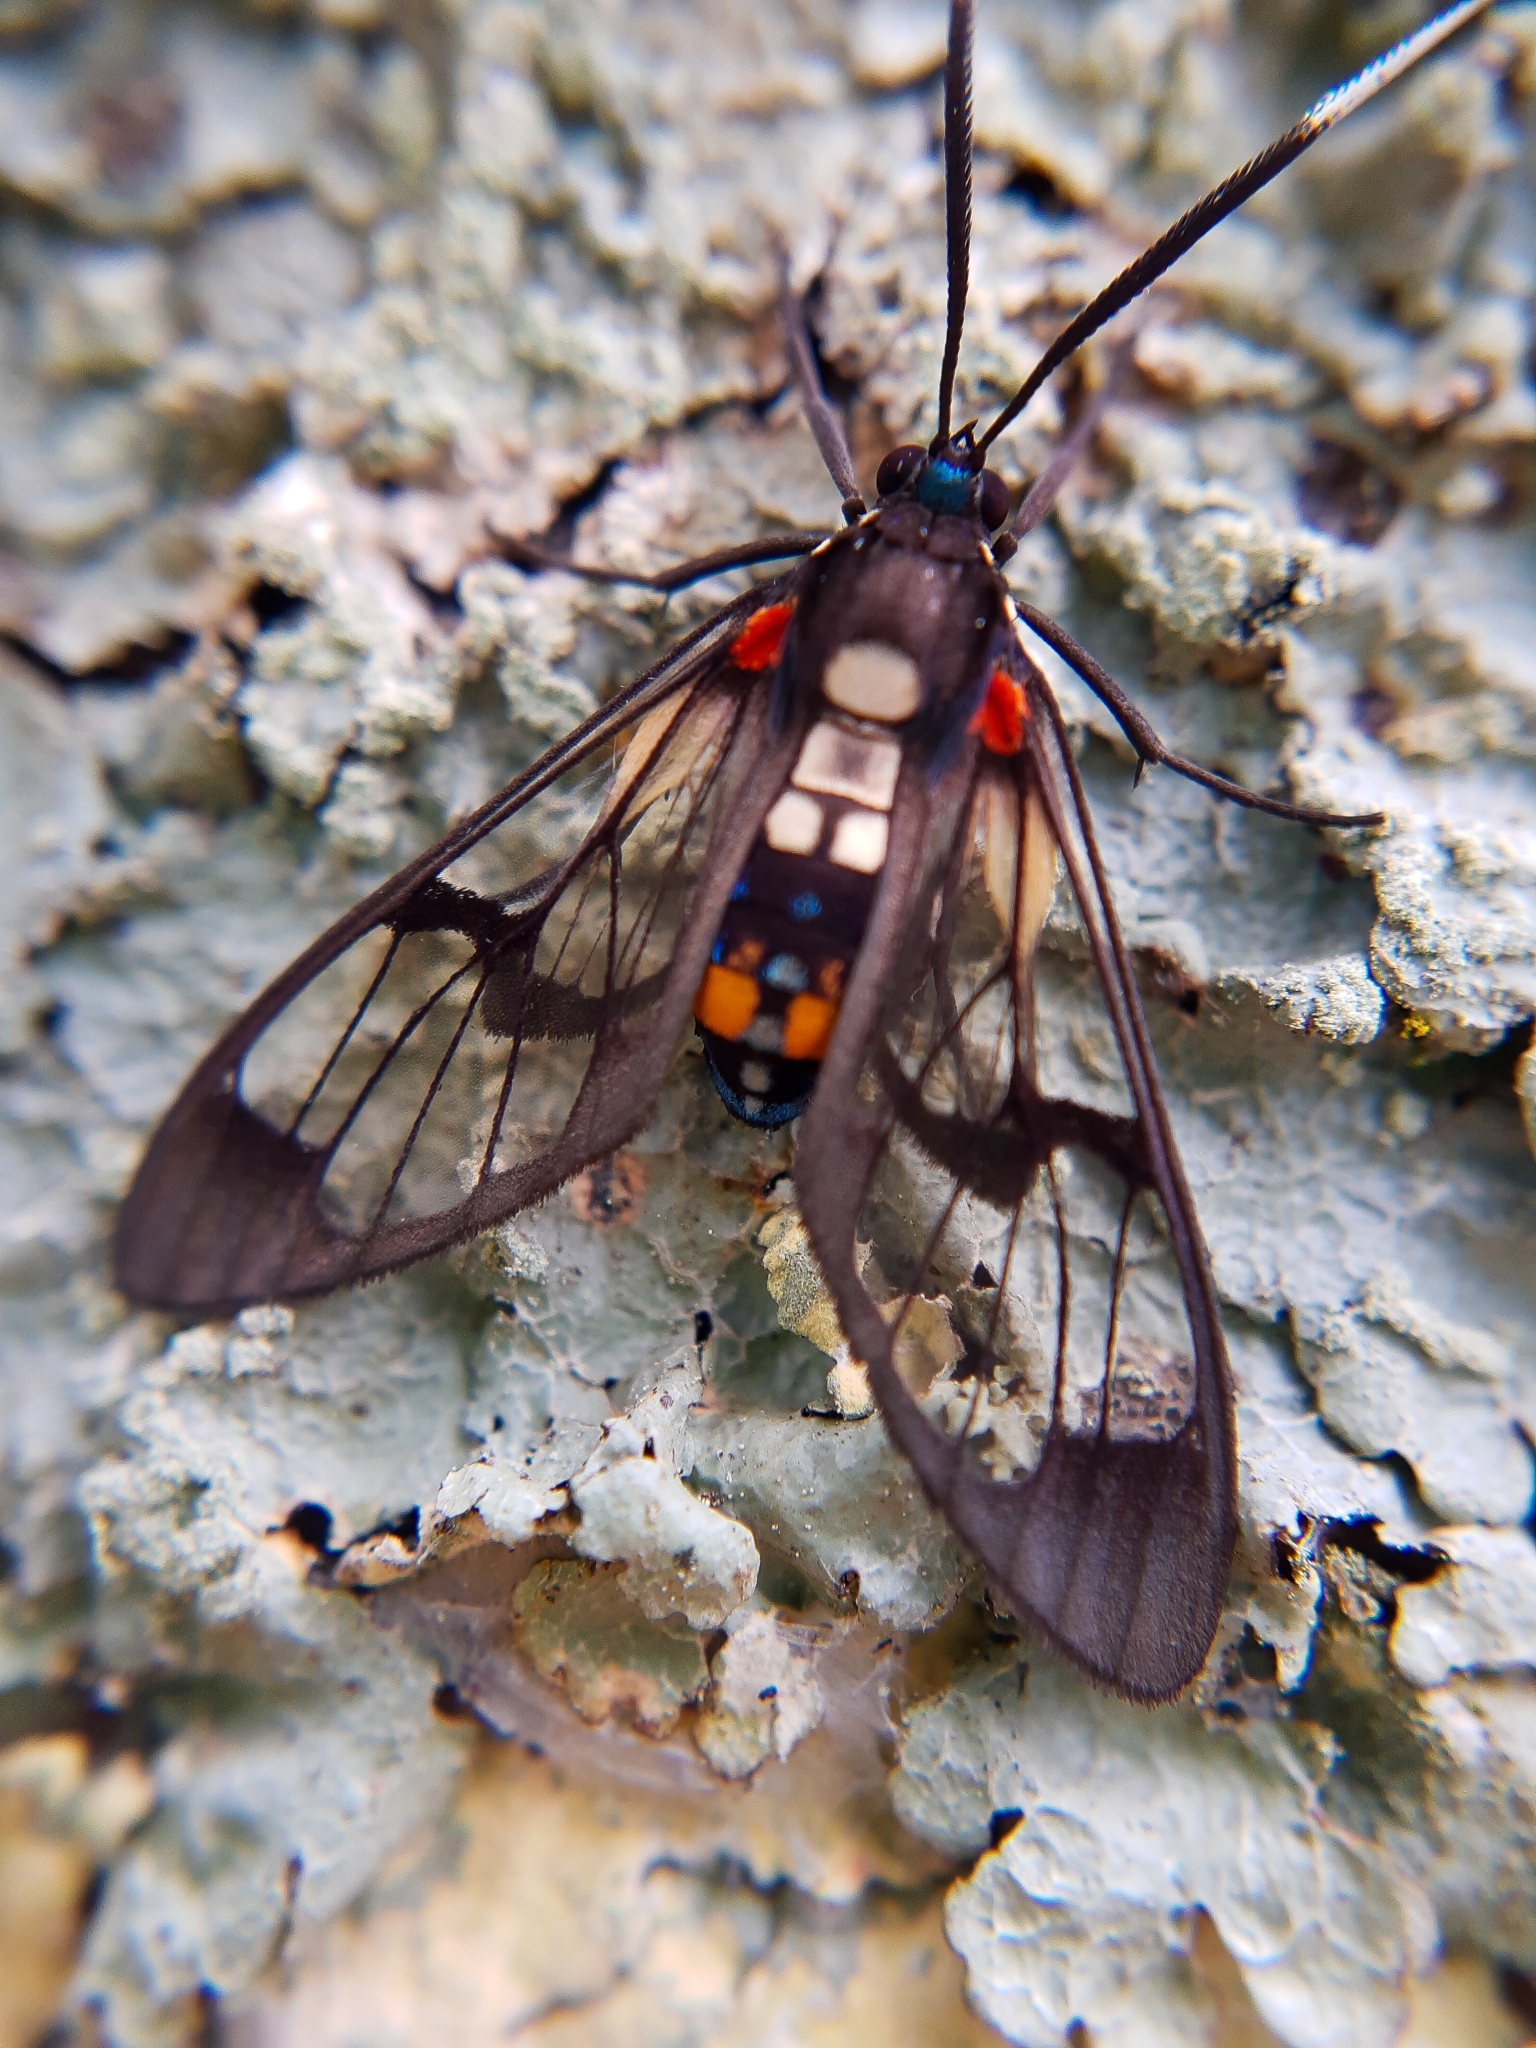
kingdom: Animalia
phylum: Arthropoda
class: Insecta
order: Lepidoptera
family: Erebidae
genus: Cosmosoma
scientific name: Cosmosoma leuconoton
